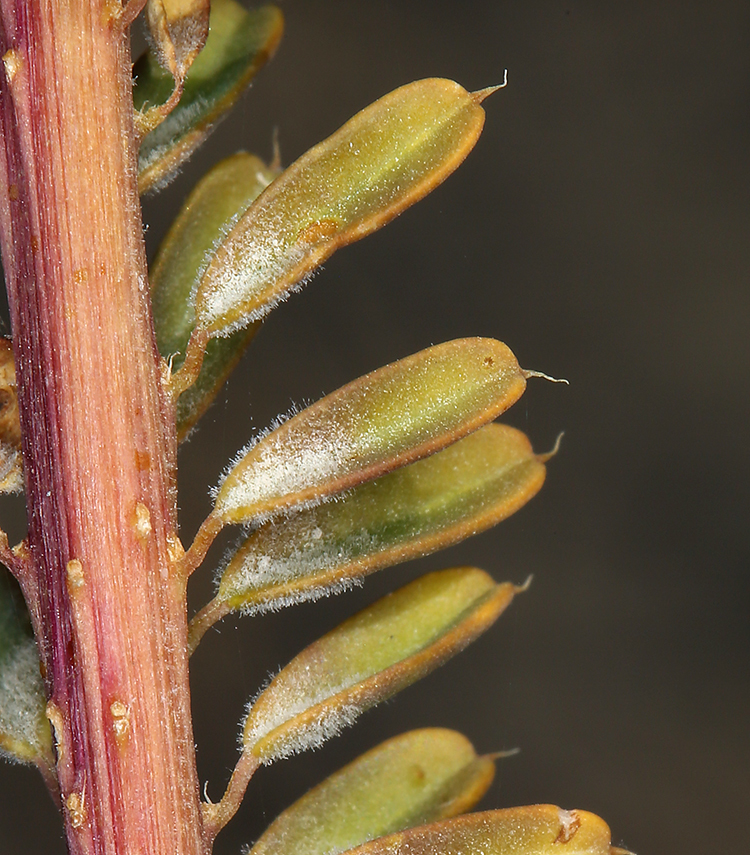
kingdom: Plantae
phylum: Tracheophyta
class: Magnoliopsida
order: Brassicales
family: Cleomaceae
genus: Cleomella
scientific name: Cleomella plocasperma
